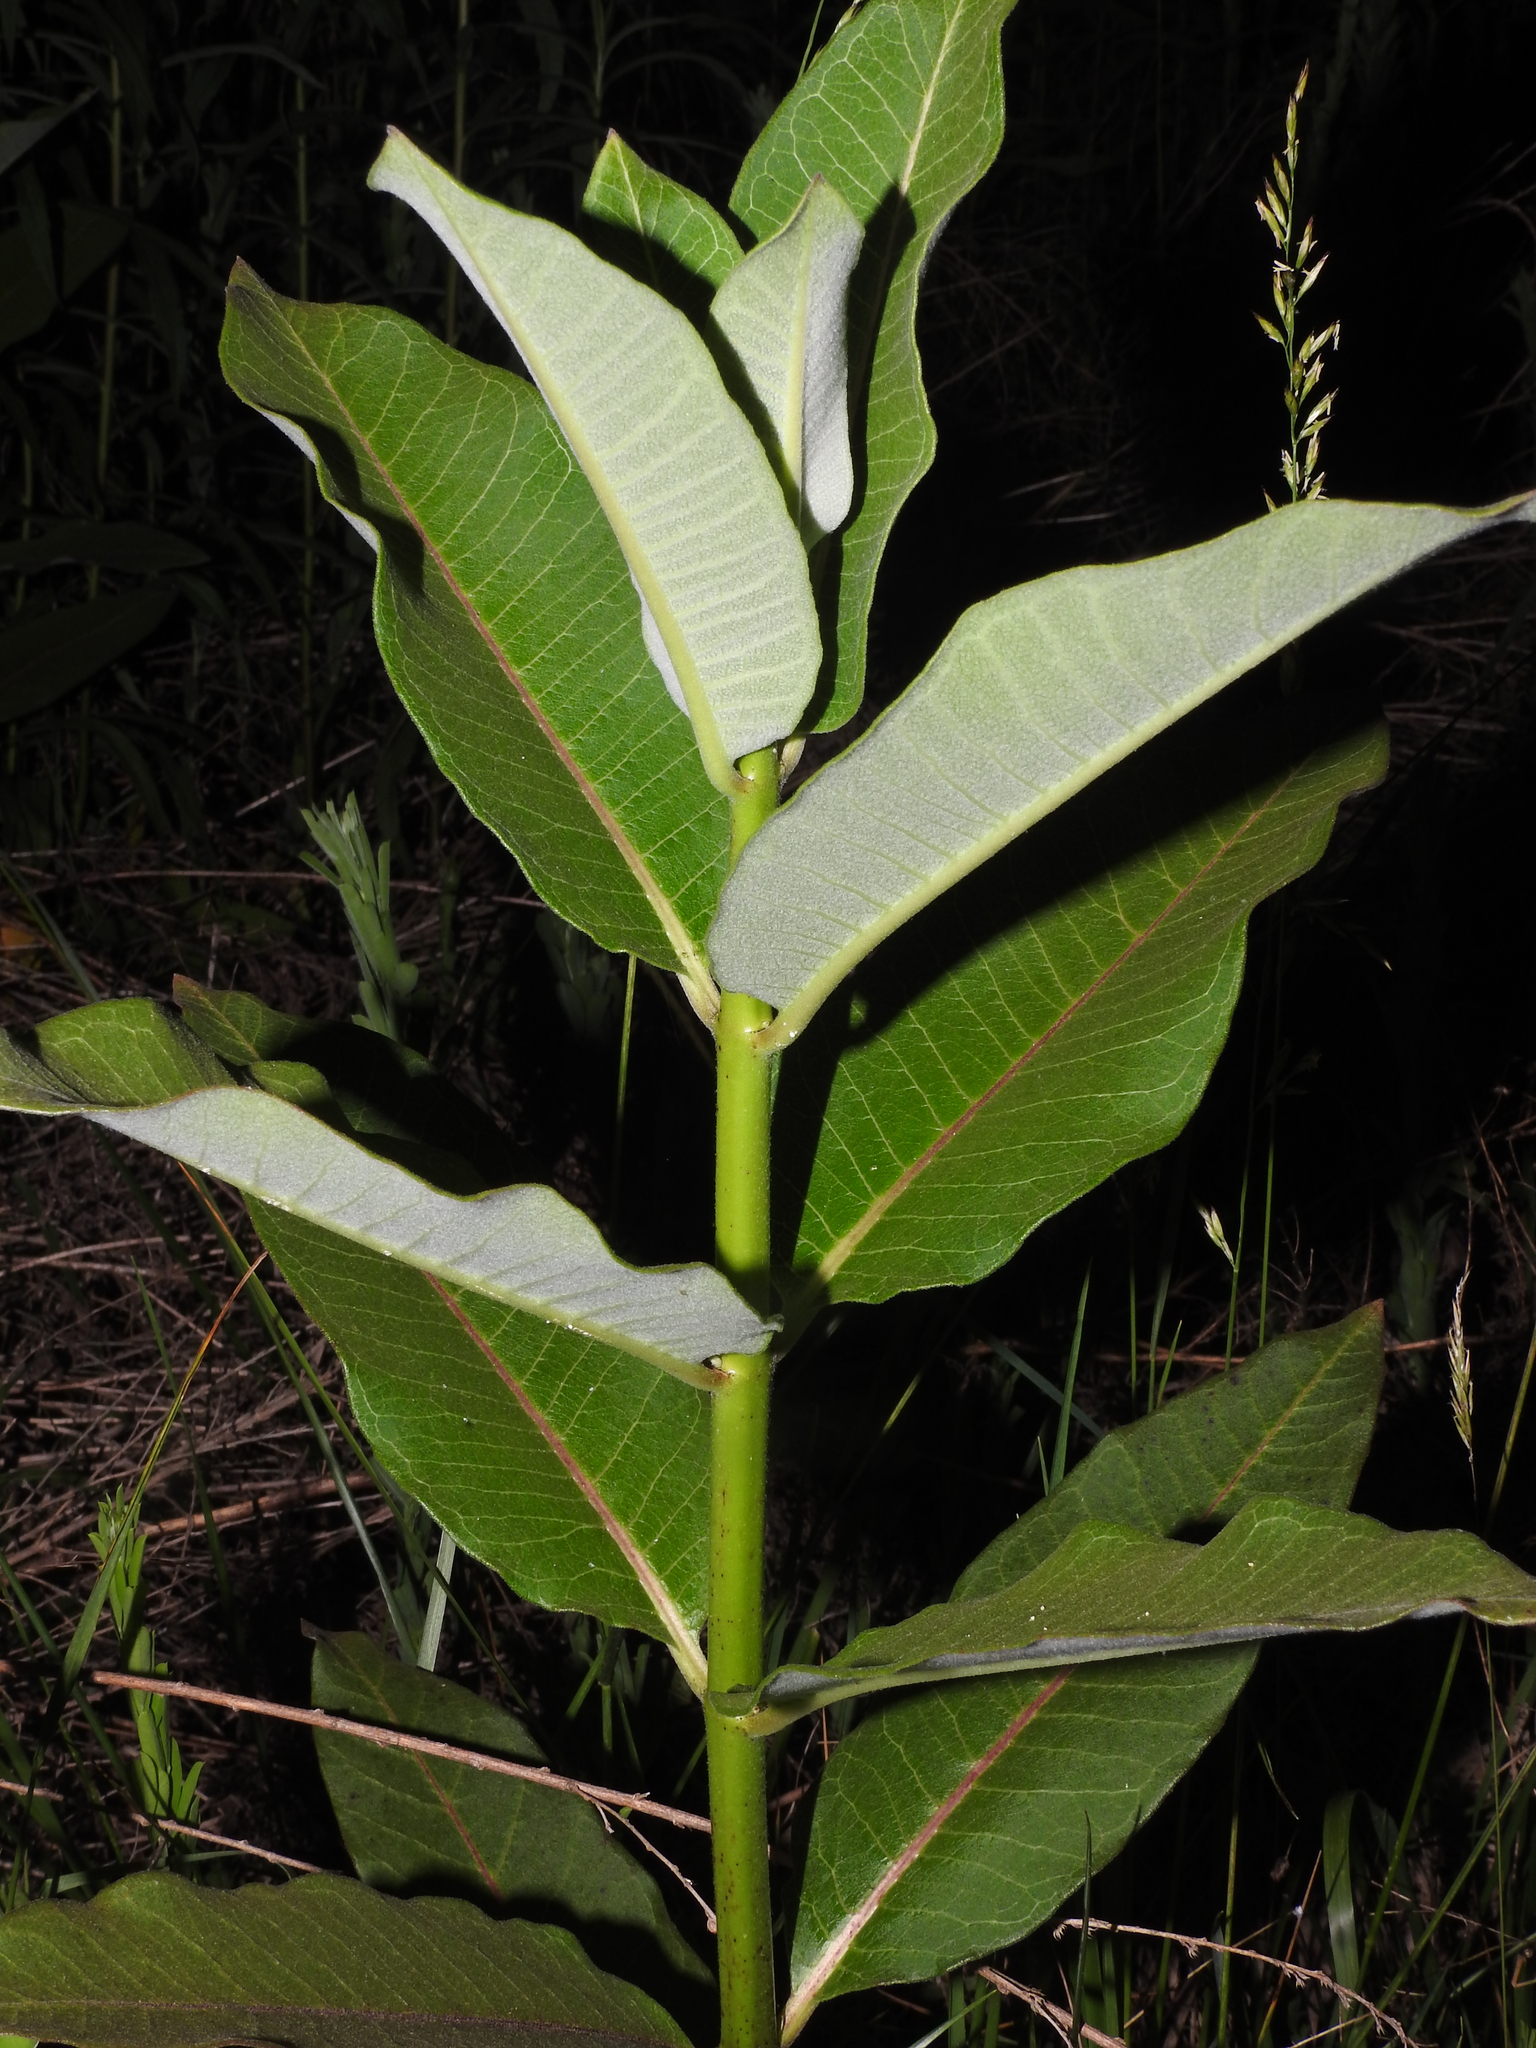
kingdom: Plantae
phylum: Tracheophyta
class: Magnoliopsida
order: Gentianales
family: Apocynaceae
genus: Asclepias
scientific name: Asclepias syriaca
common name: Common milkweed
